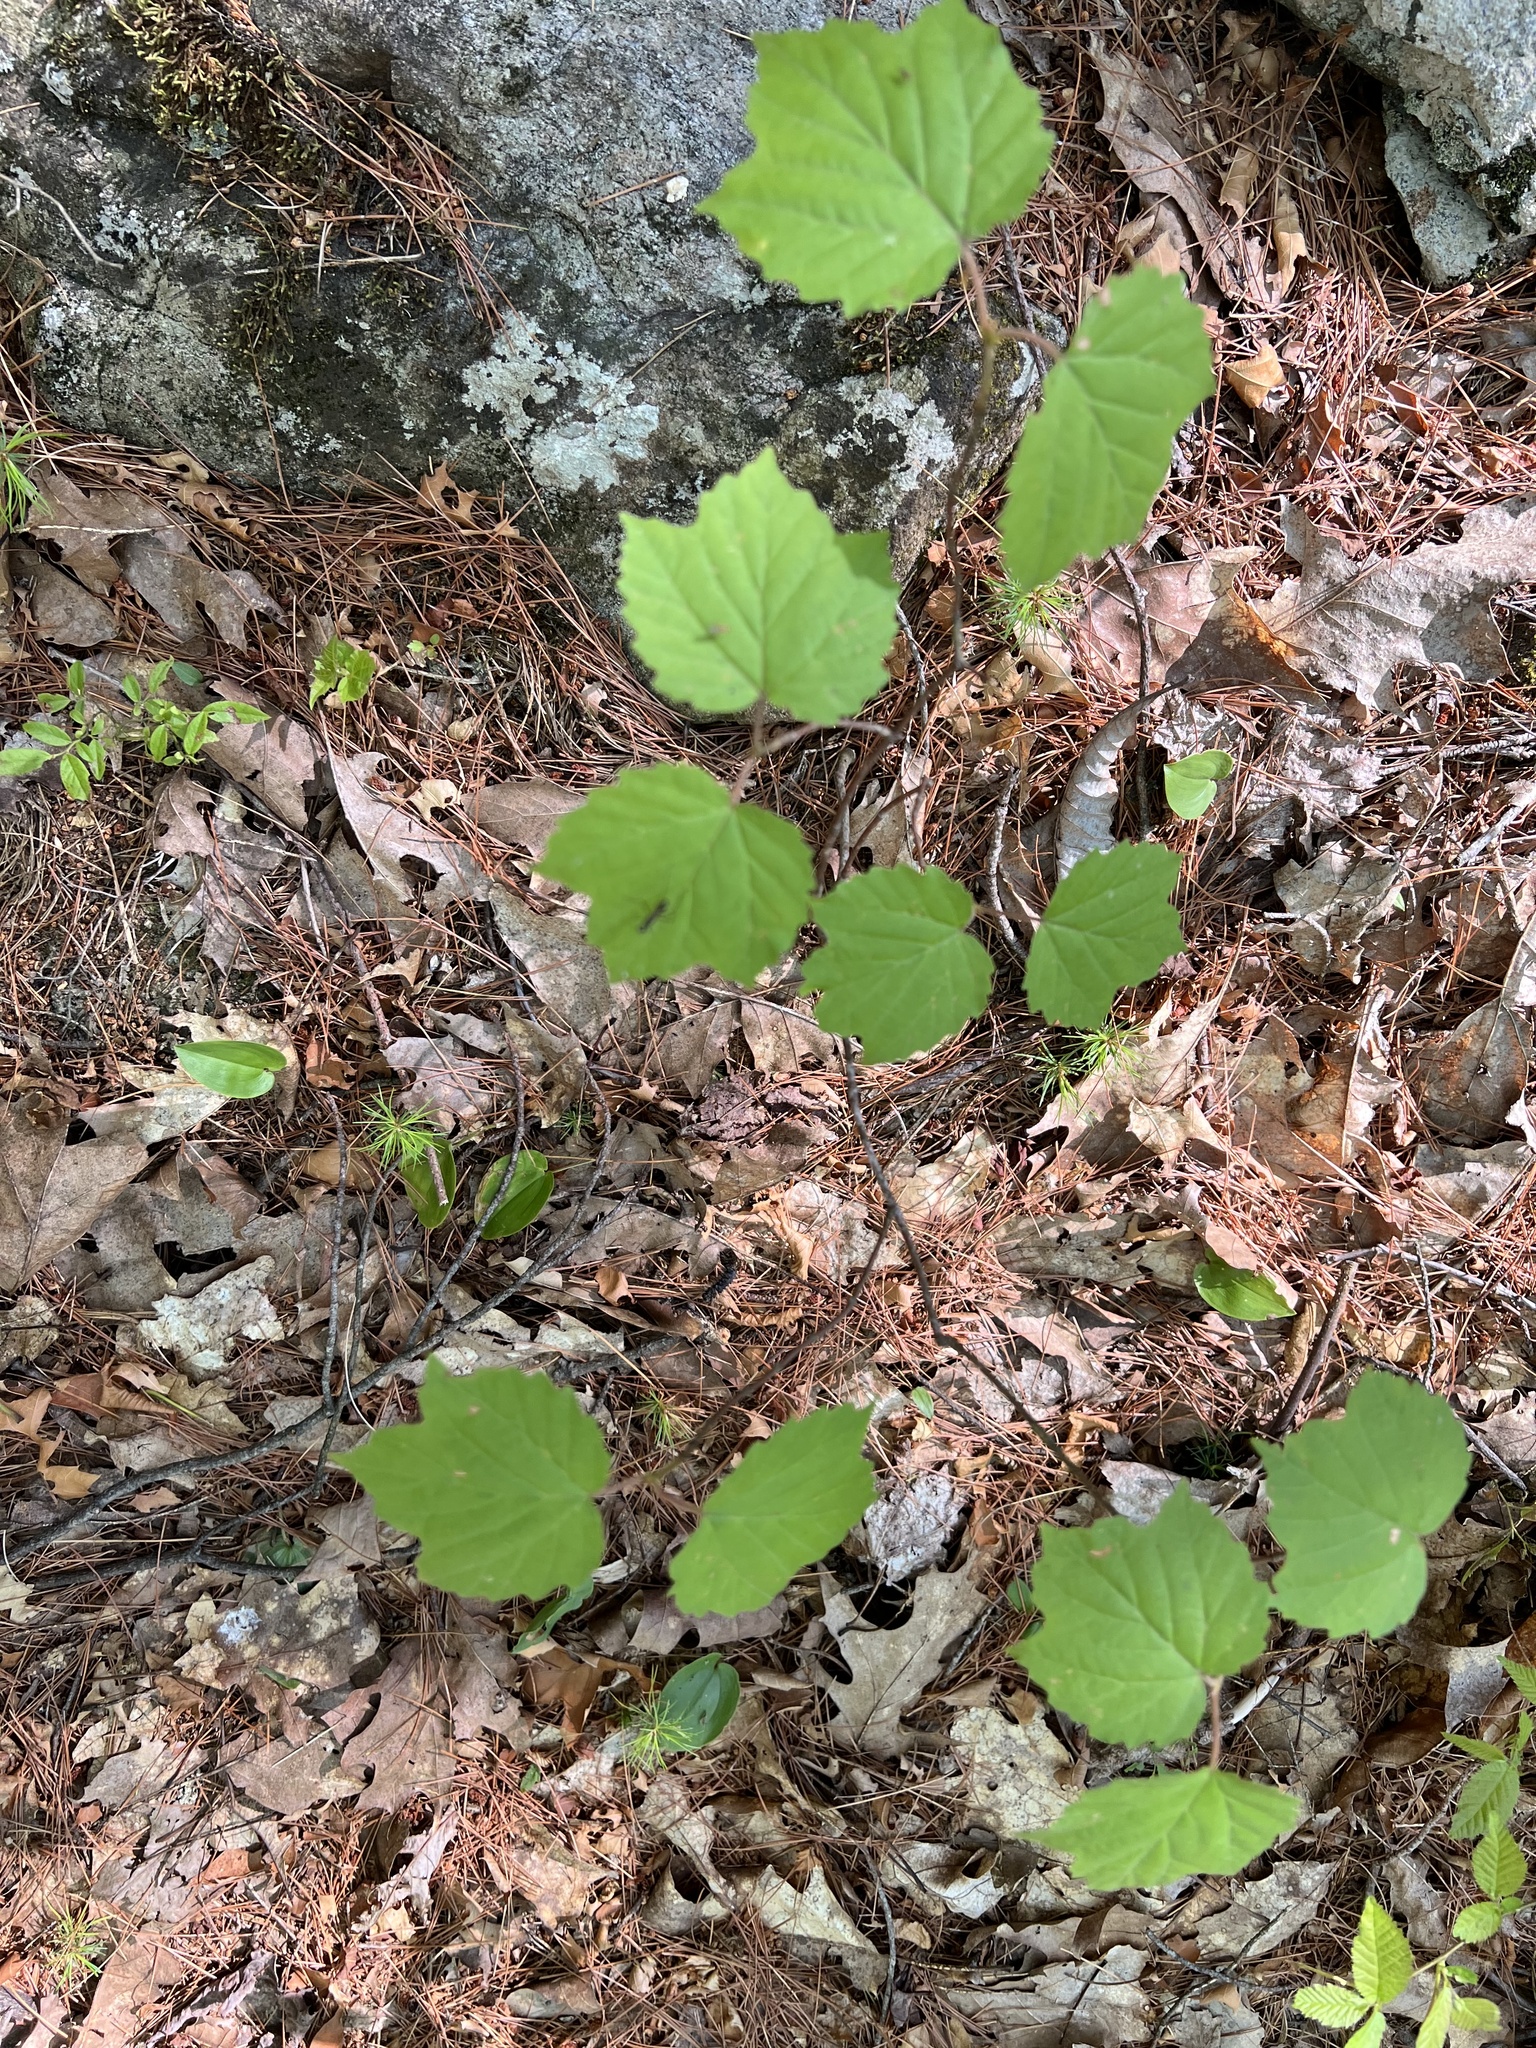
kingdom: Plantae
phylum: Tracheophyta
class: Magnoliopsida
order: Dipsacales
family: Viburnaceae
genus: Viburnum
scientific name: Viburnum acerifolium
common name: Dockmackie
